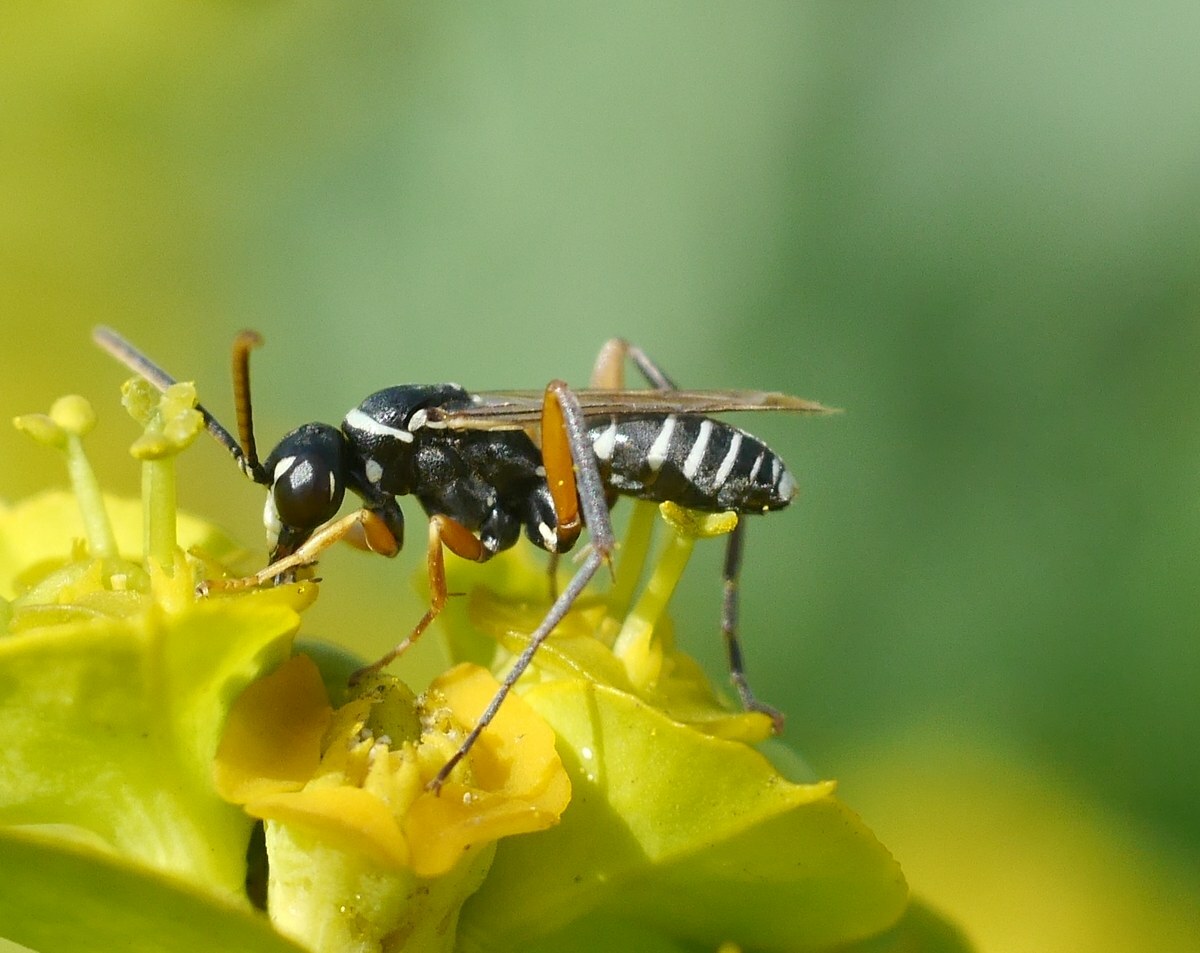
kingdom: Animalia
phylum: Arthropoda
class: Insecta
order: Hymenoptera
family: Pompilidae
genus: Ceropales
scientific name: Ceropales albicincta
